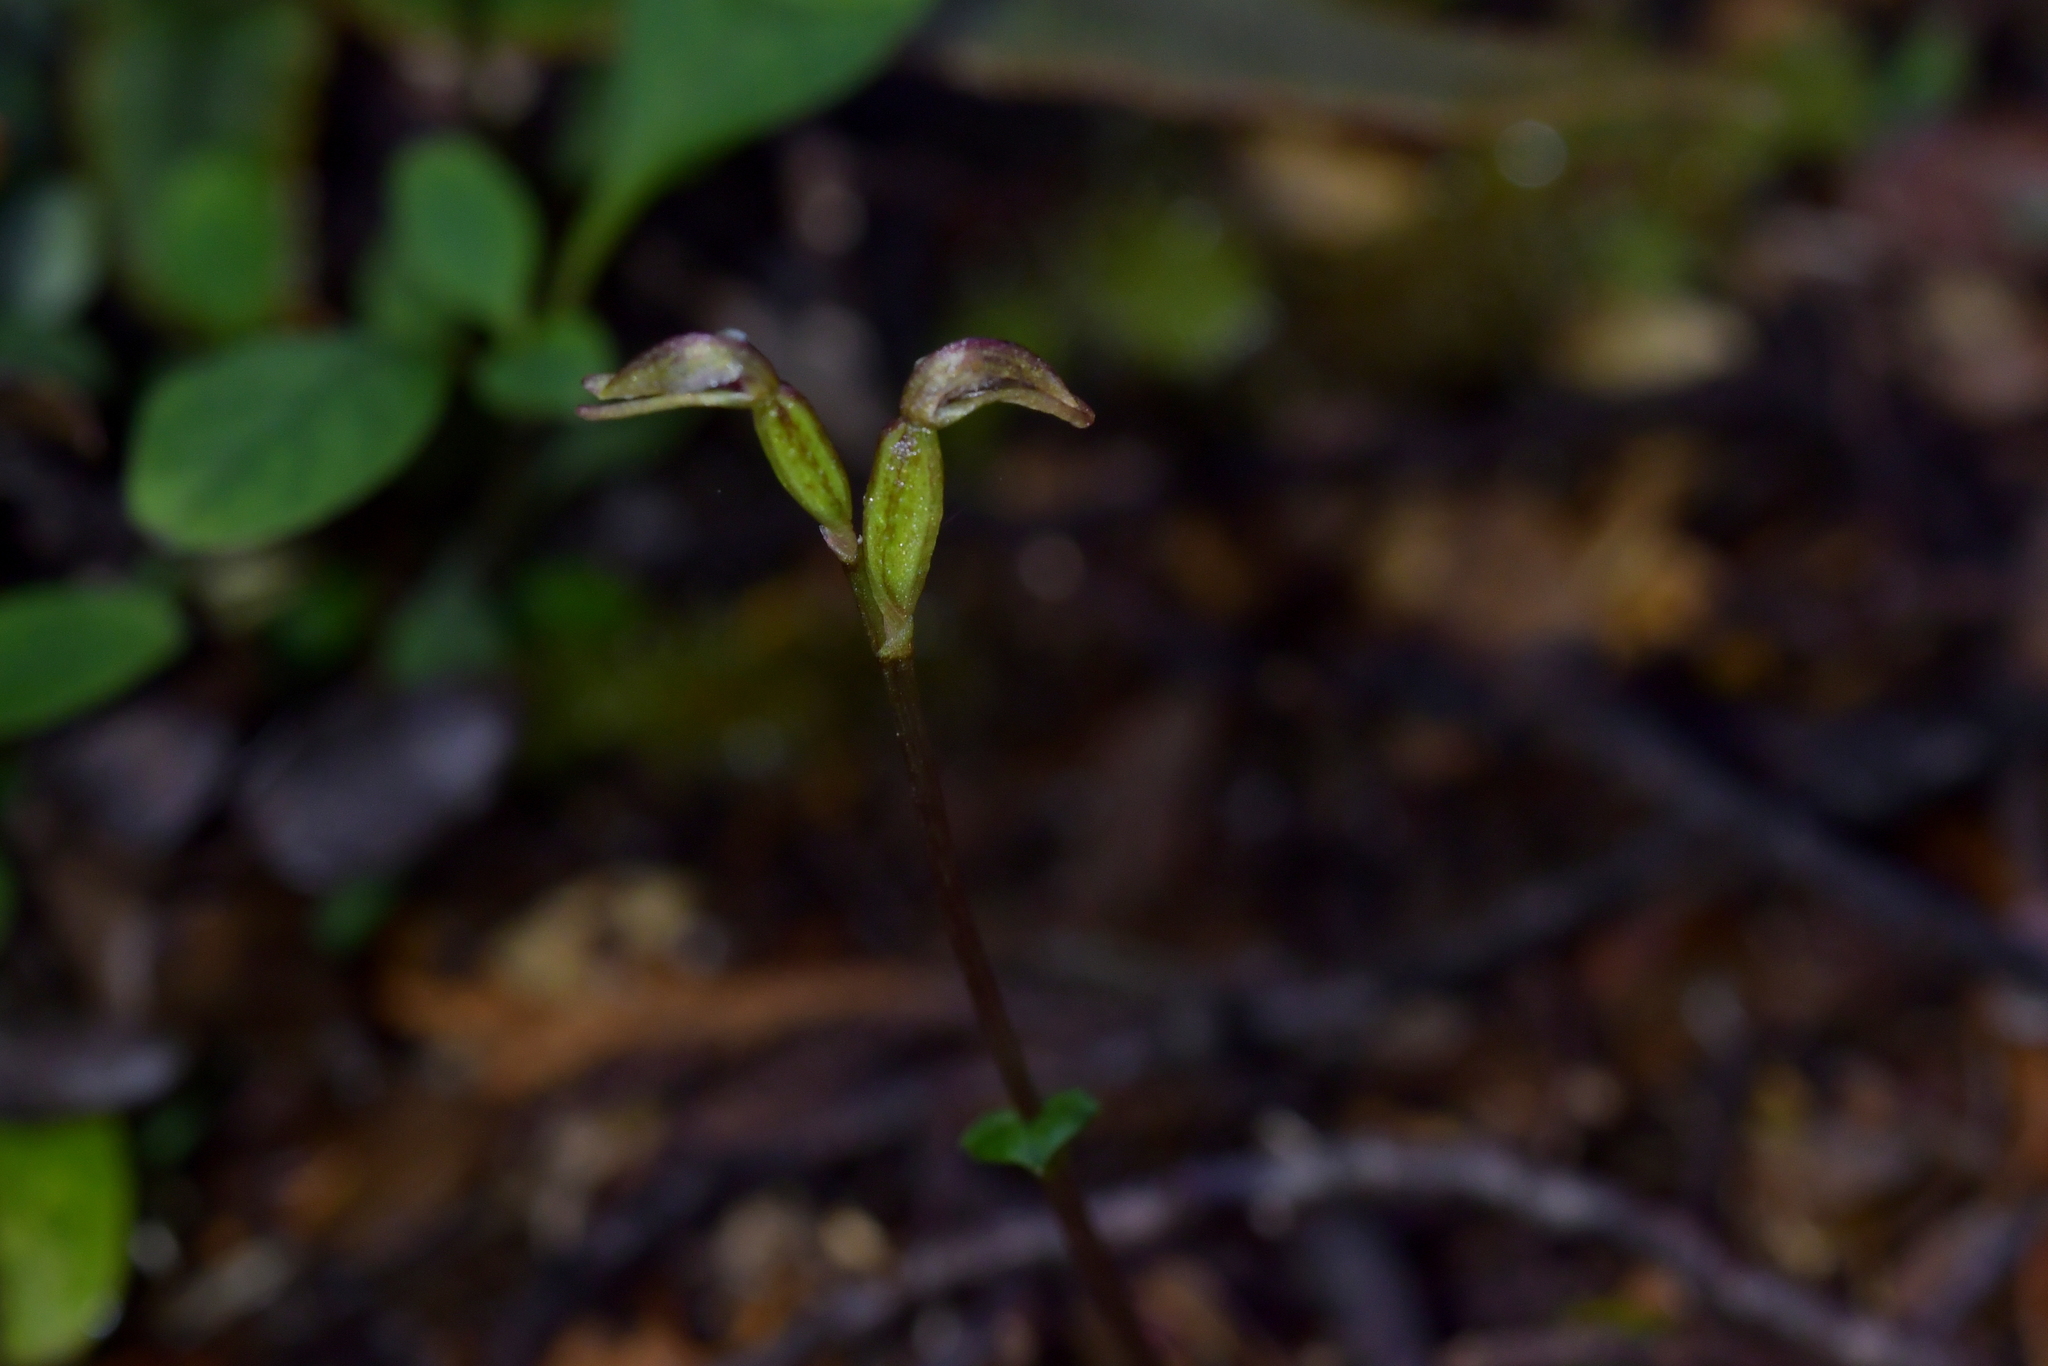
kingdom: Plantae
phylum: Tracheophyta
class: Liliopsida
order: Asparagales
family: Orchidaceae
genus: Townsonia
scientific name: Townsonia deflexa
